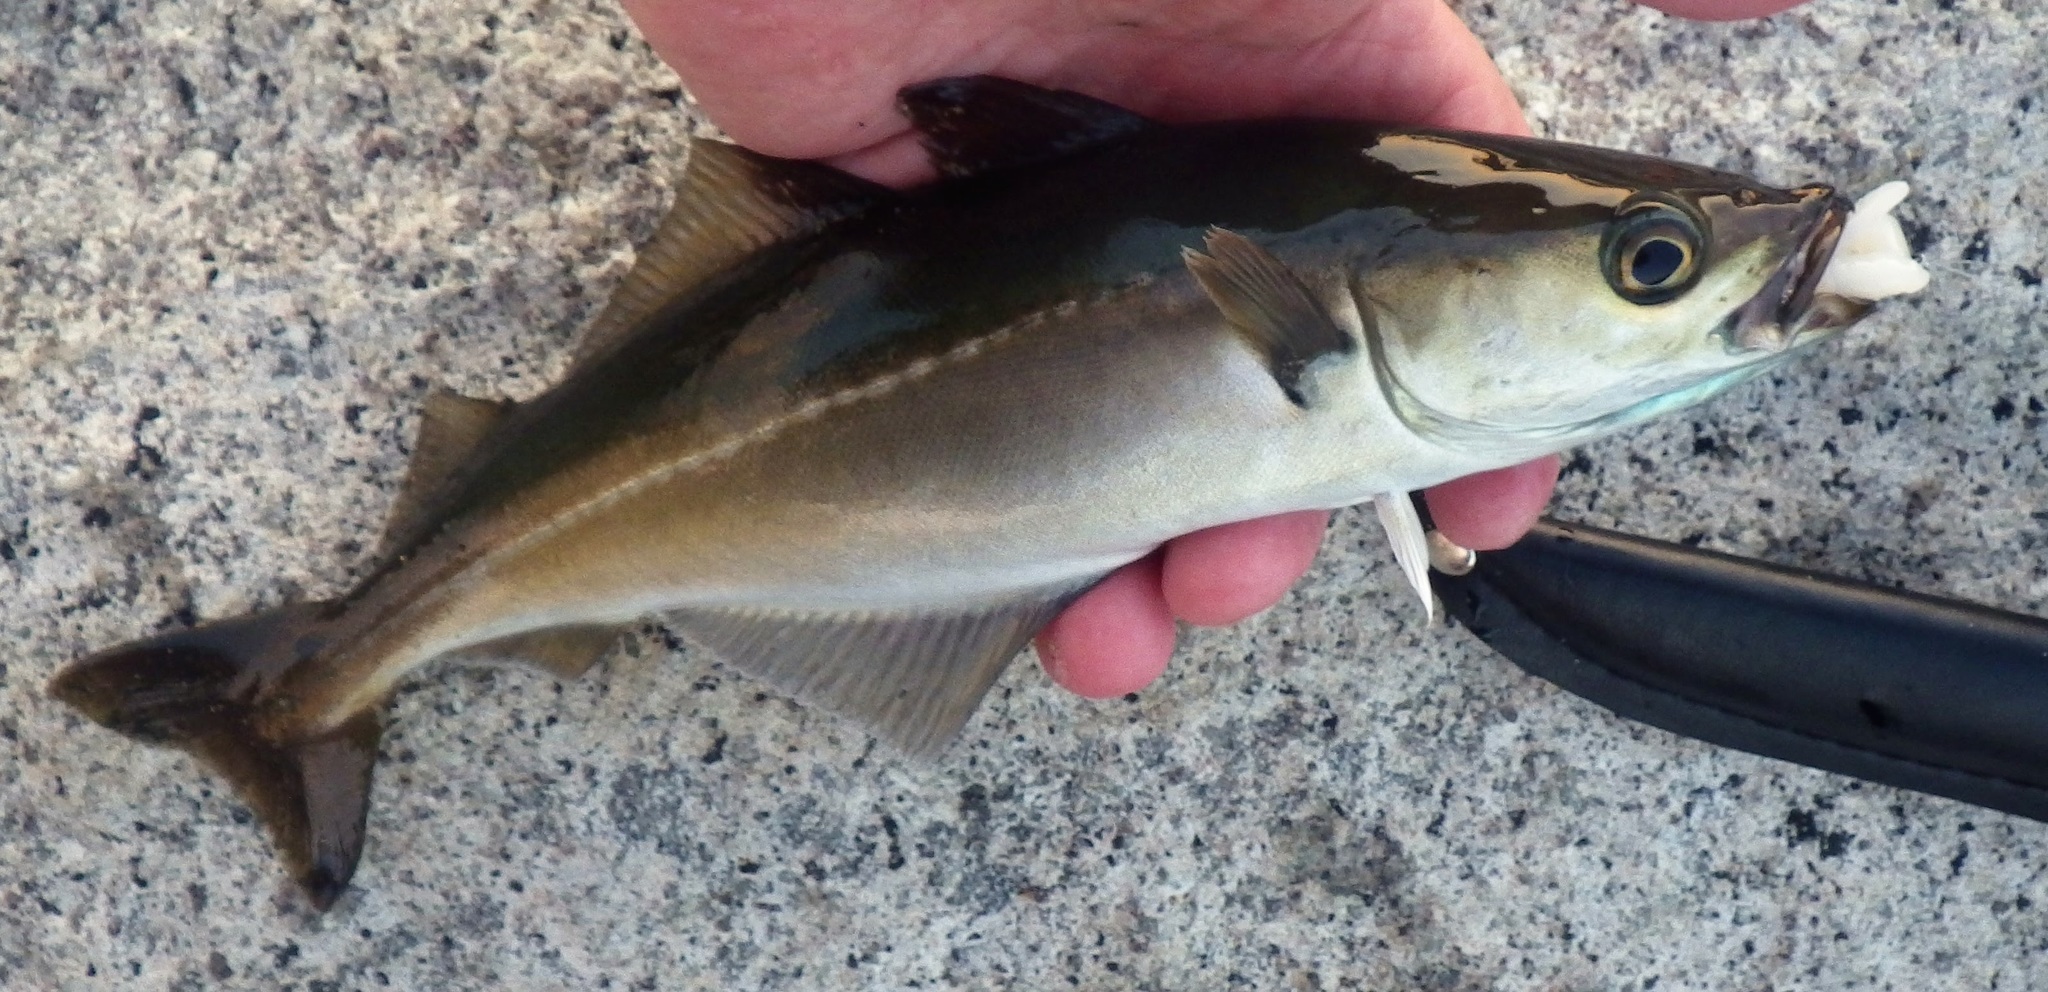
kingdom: Animalia
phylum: Chordata
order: Gadiformes
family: Gadidae
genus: Pollachius
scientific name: Pollachius virens
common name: Saithe
